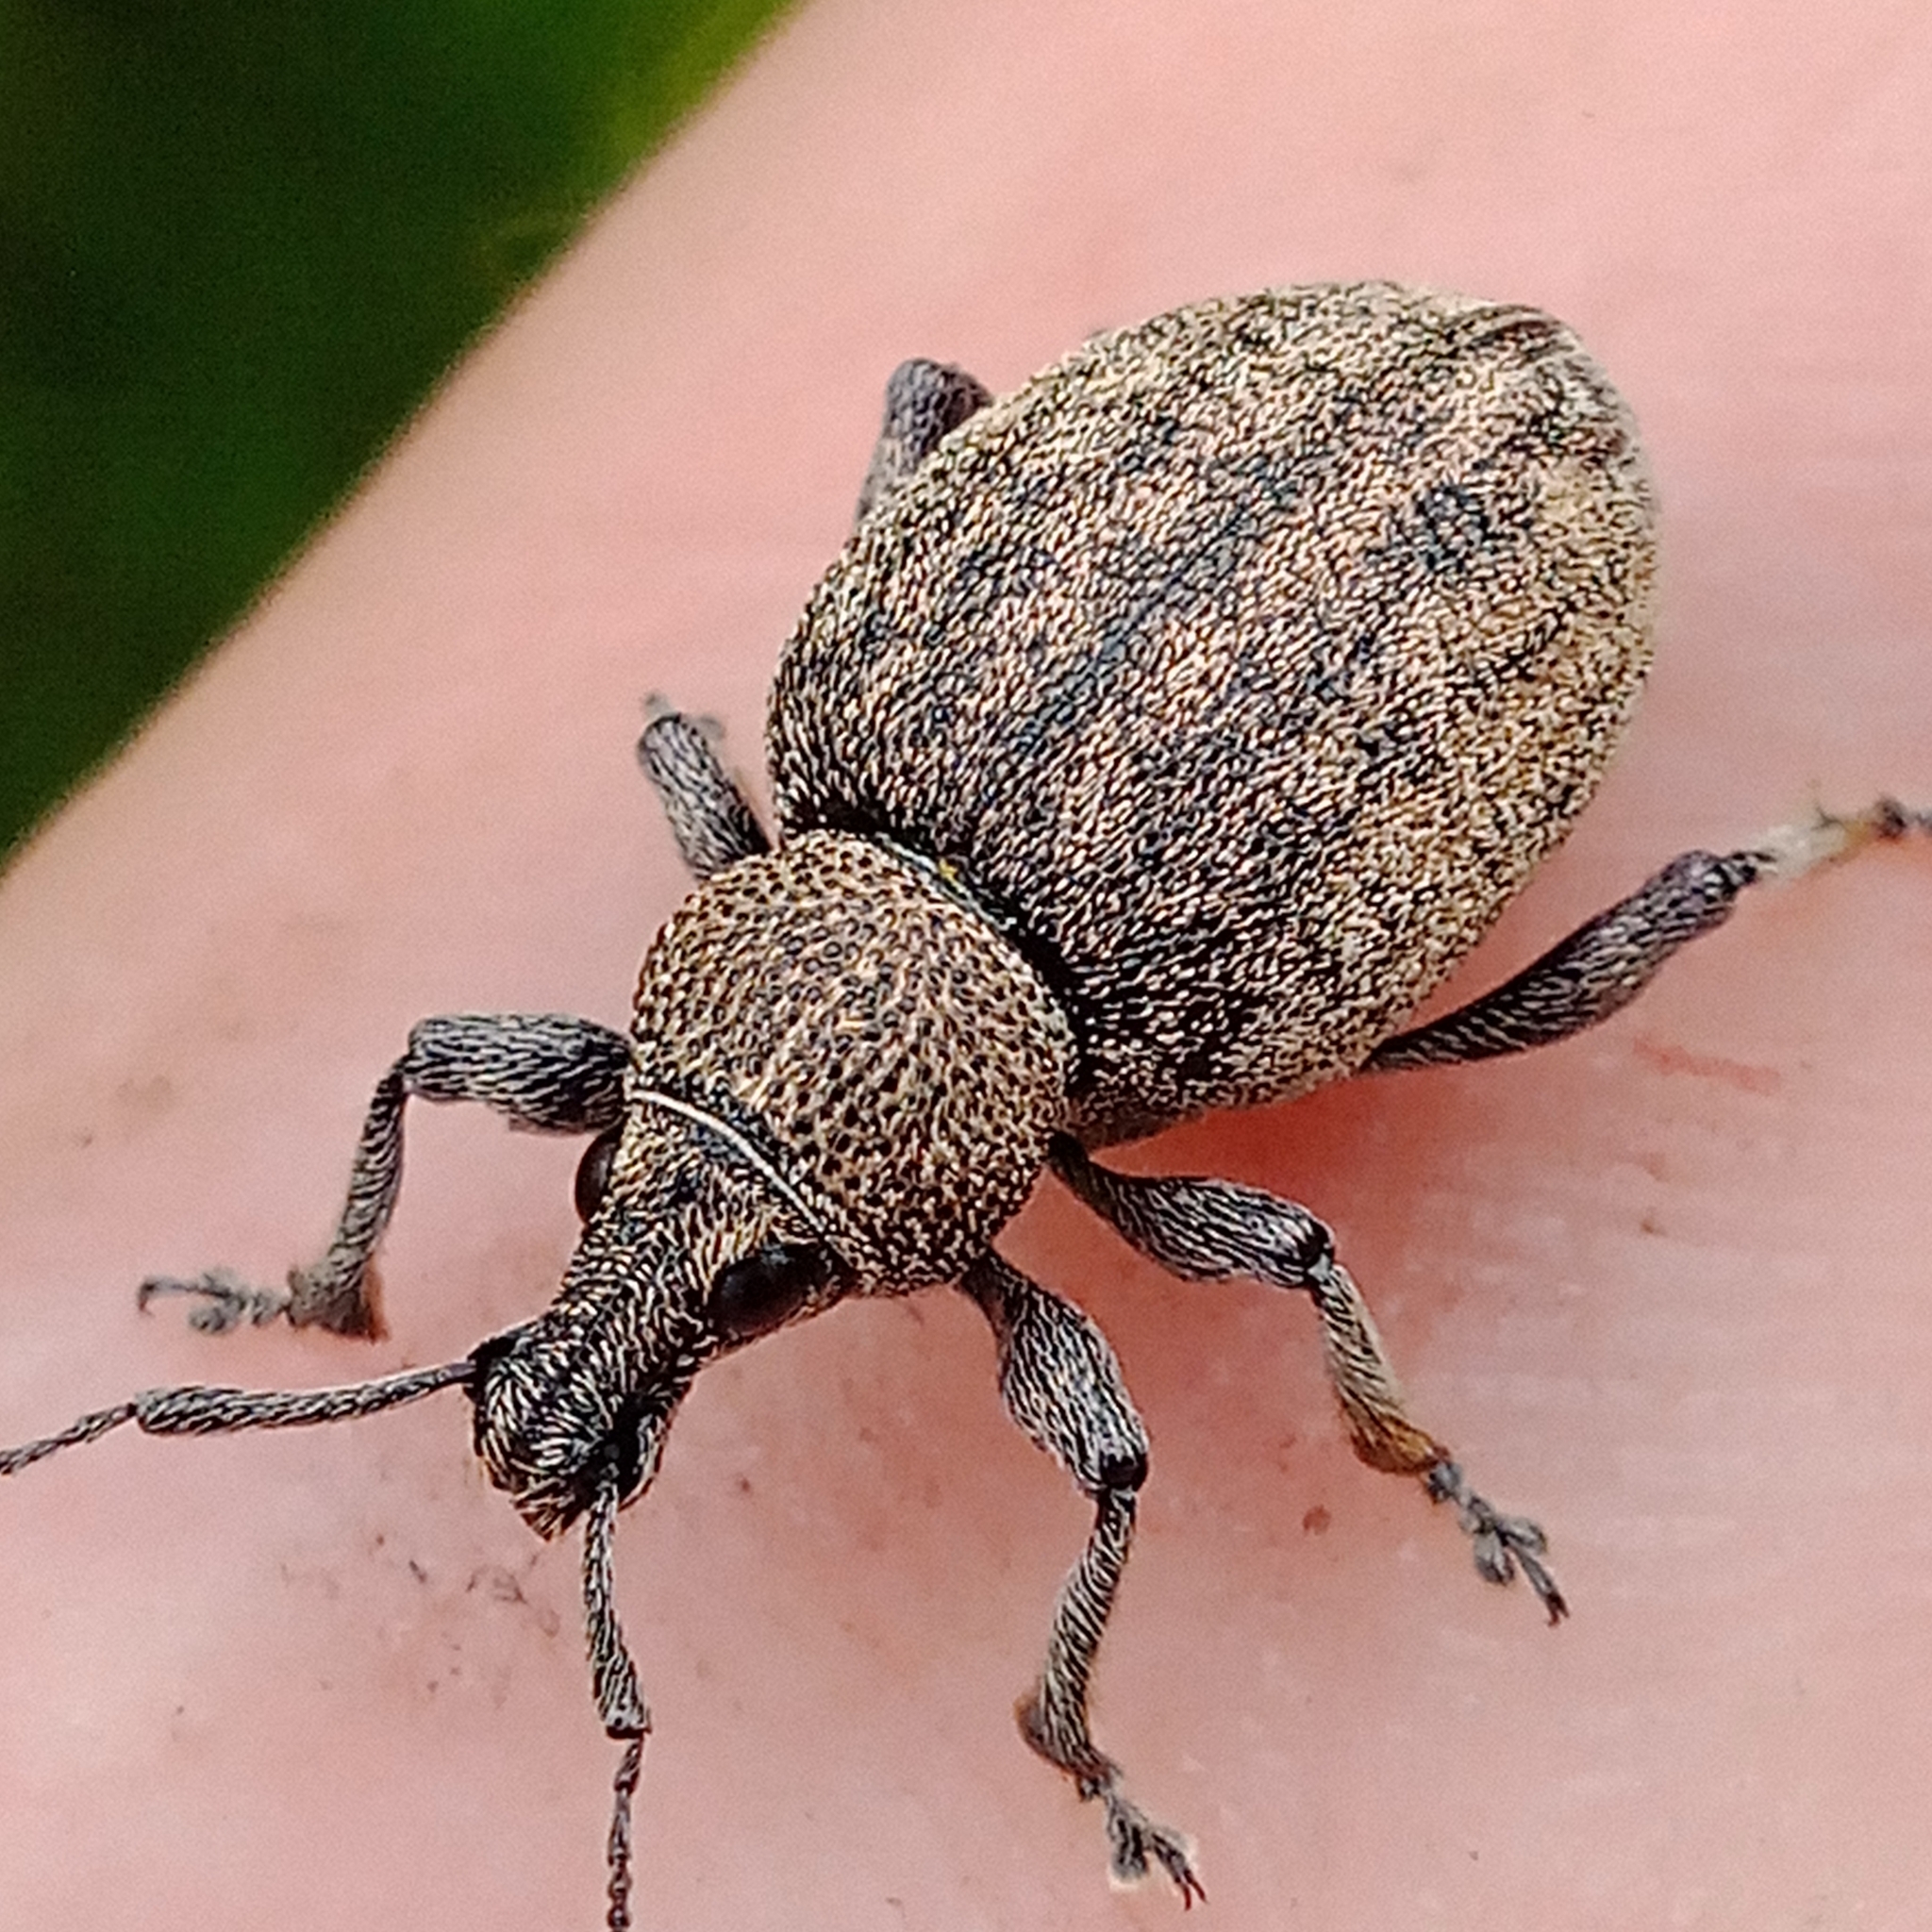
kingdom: Animalia
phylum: Arthropoda
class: Insecta
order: Coleoptera
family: Curculionidae
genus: Otiorhynchus
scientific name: Otiorhynchus ligustici
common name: Weevil
